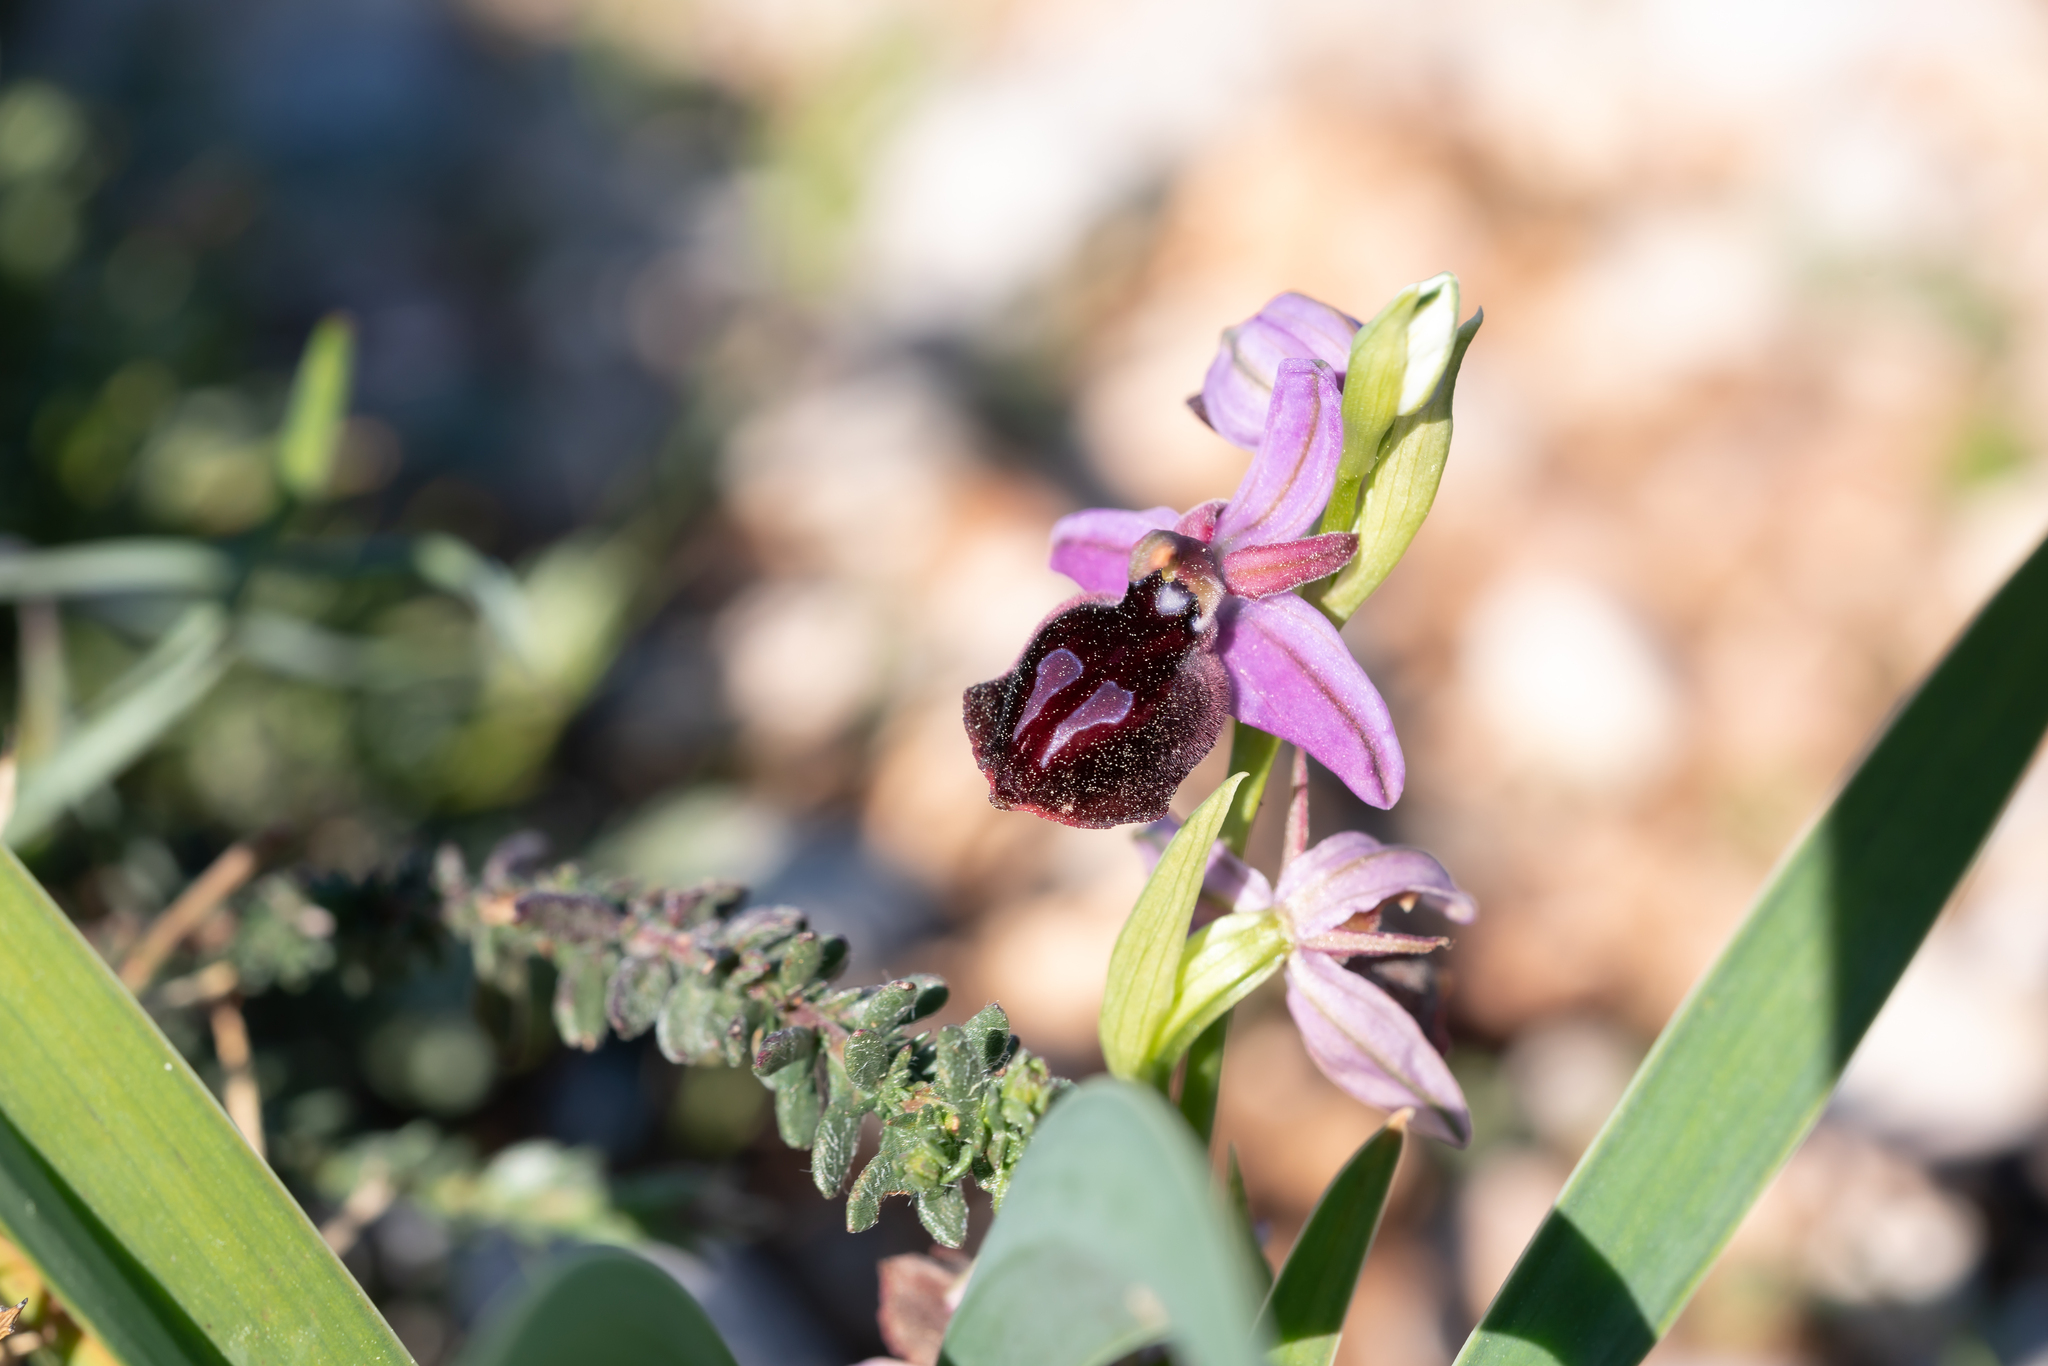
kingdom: Plantae
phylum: Tracheophyta
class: Liliopsida
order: Asparagales
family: Orchidaceae
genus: Ophrys
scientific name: Ophrys ferrum-equinum
